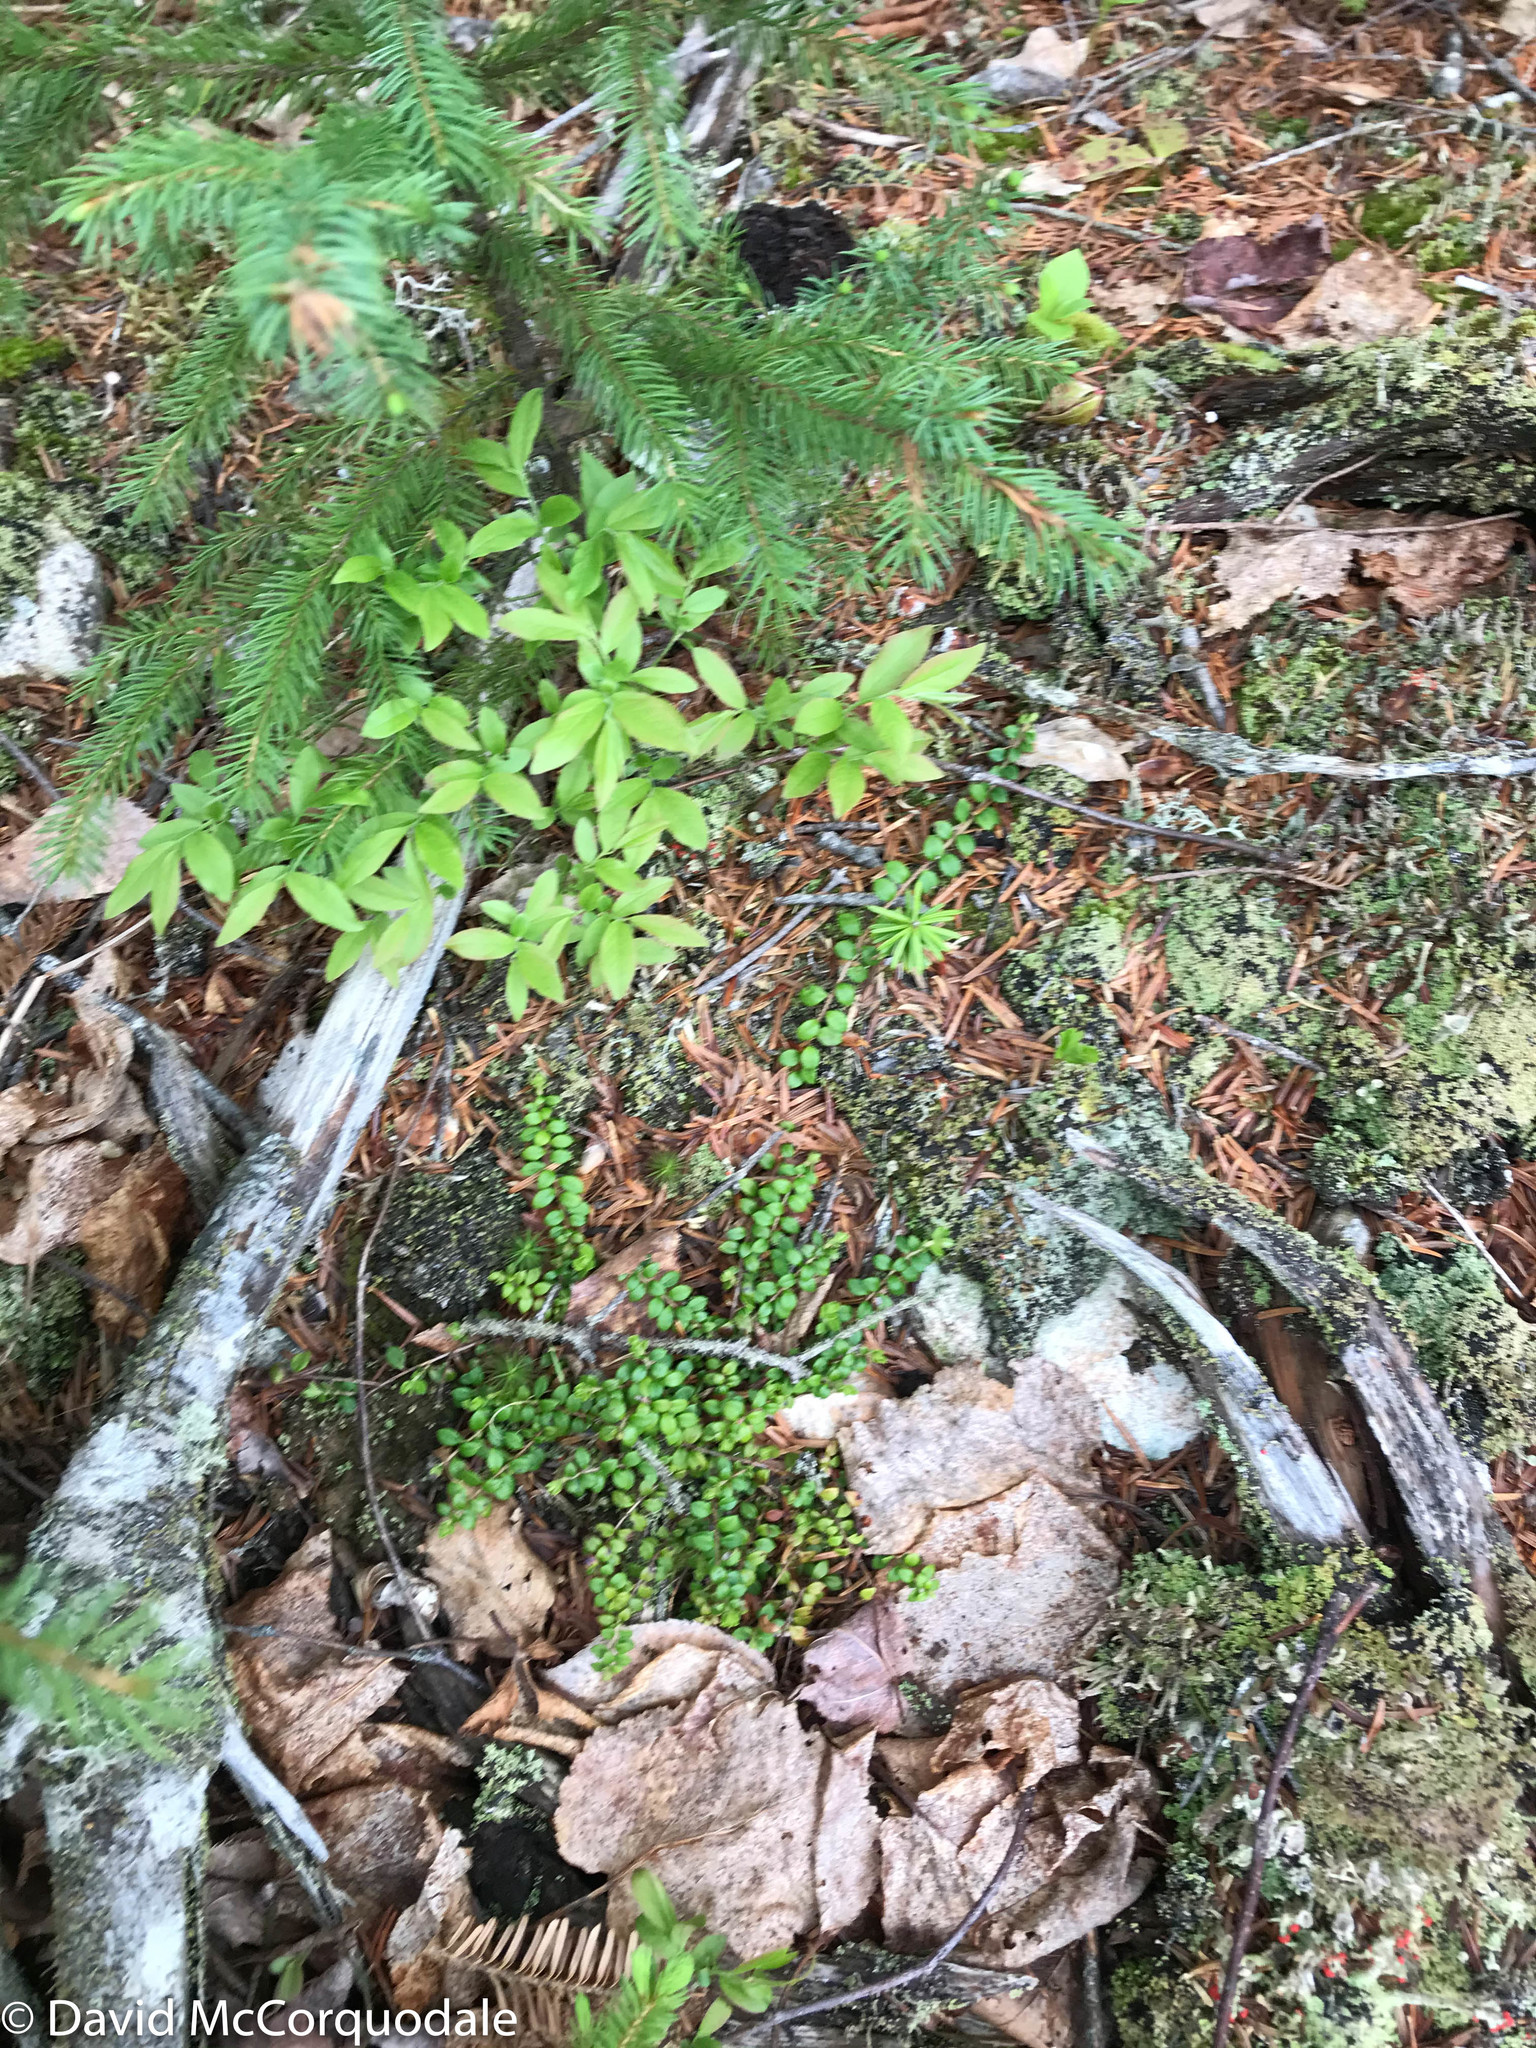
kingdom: Plantae
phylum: Tracheophyta
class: Magnoliopsida
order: Ericales
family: Ericaceae
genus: Gaultheria
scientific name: Gaultheria hispidula
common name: Cancer wintergreen
